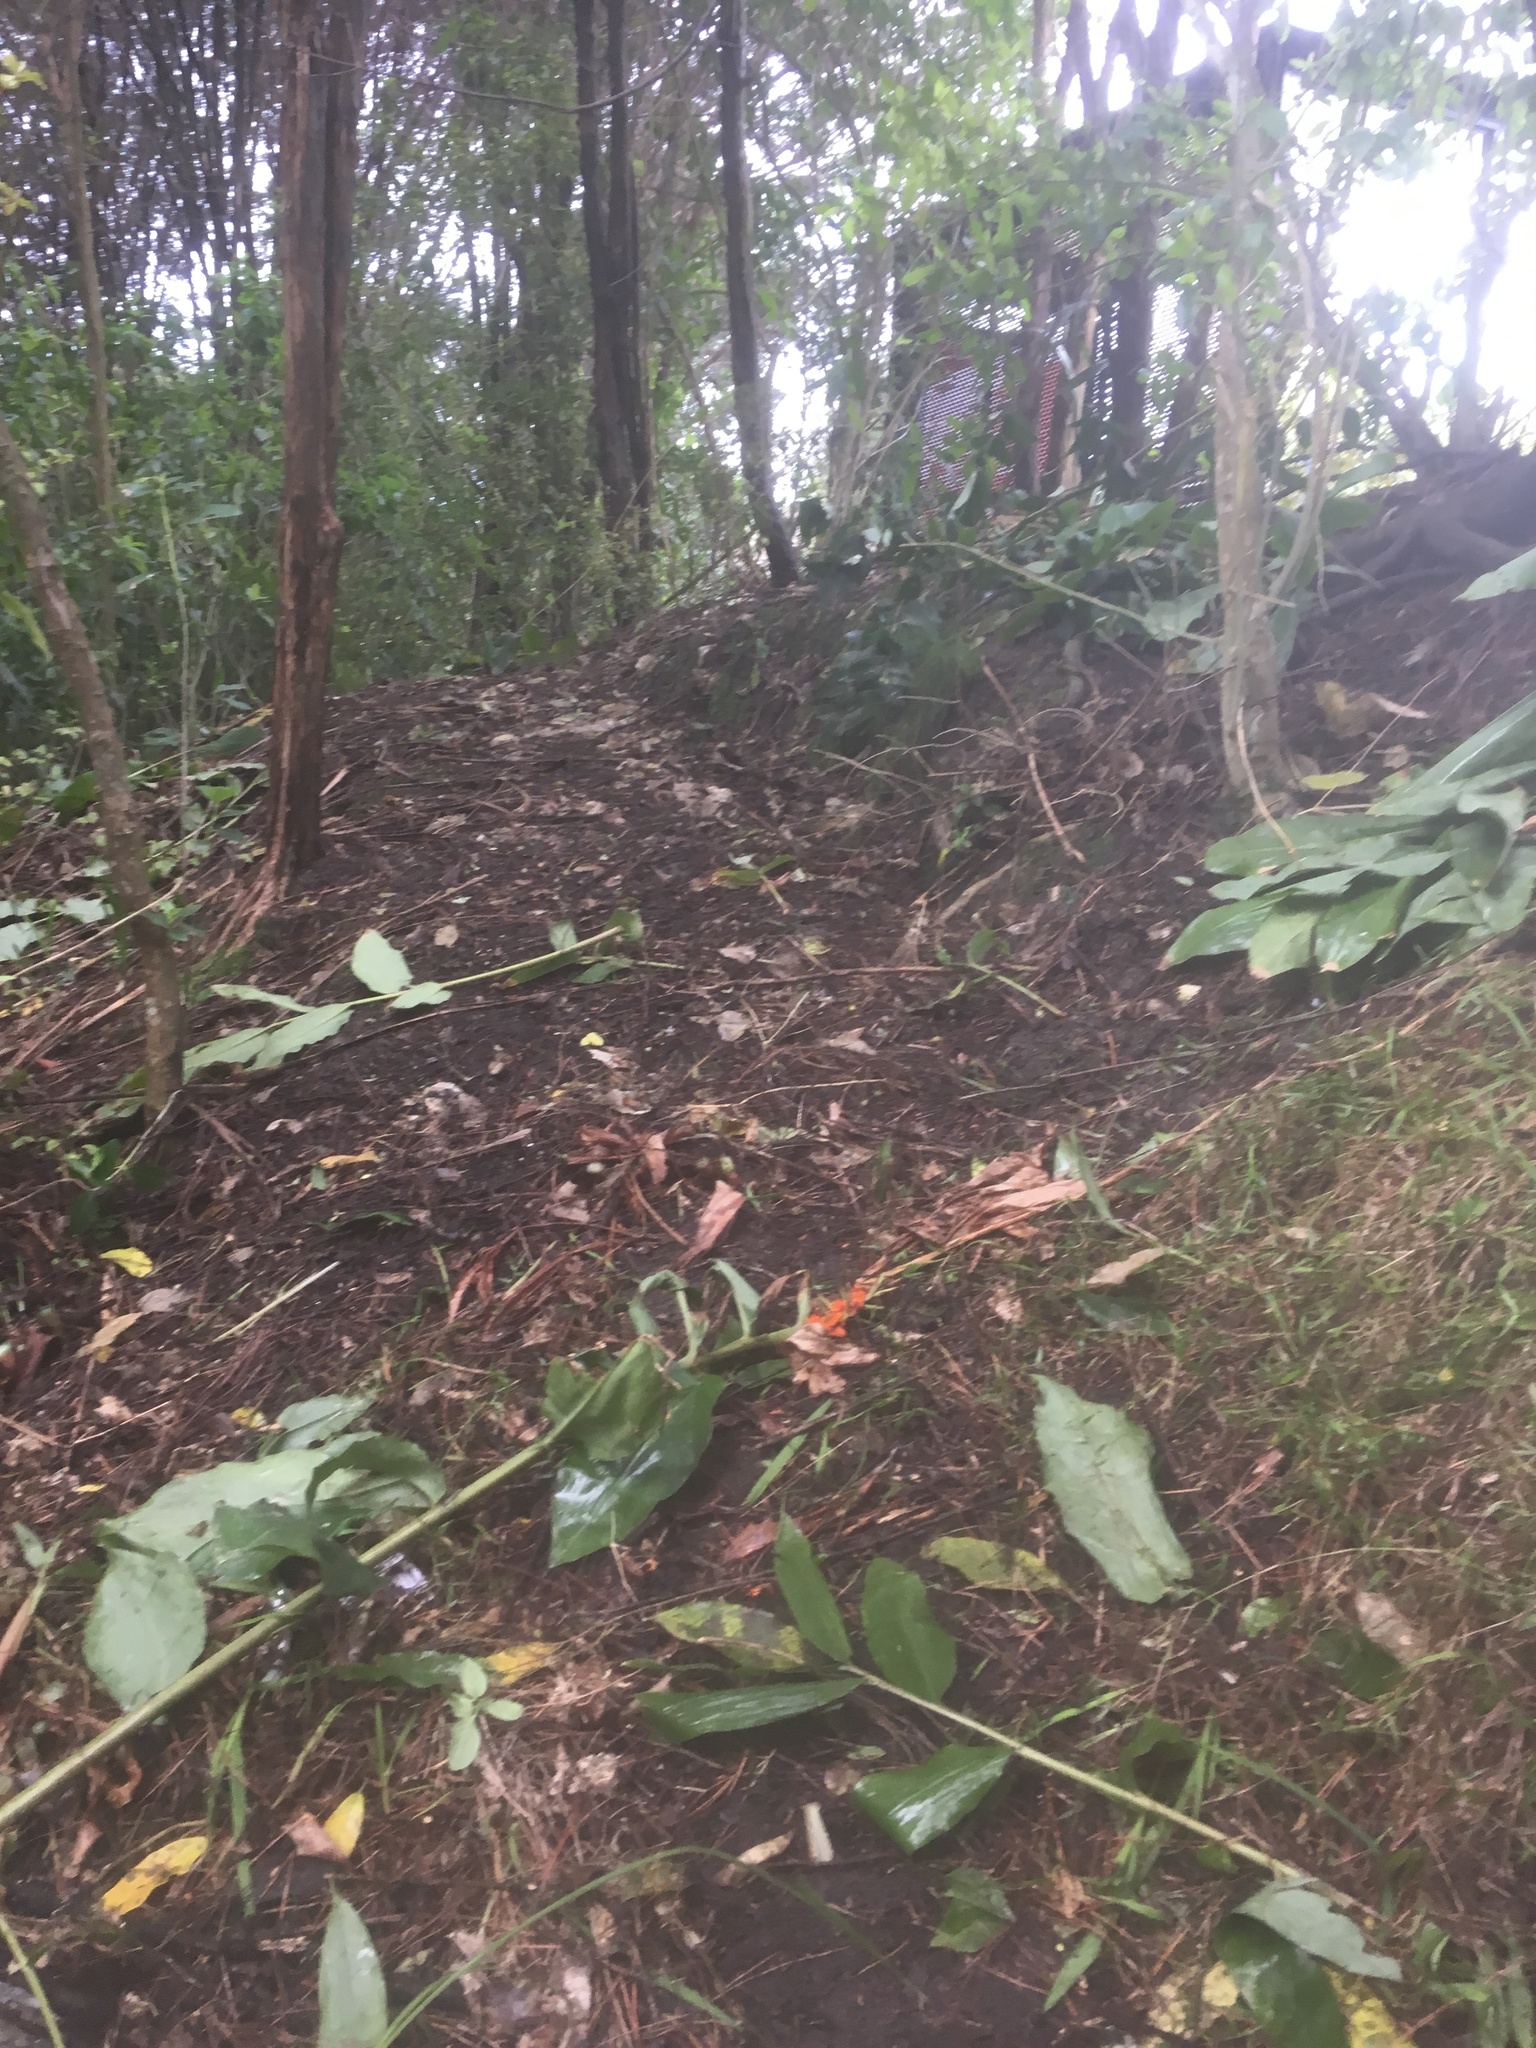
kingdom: Plantae
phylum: Tracheophyta
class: Liliopsida
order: Zingiberales
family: Zingiberaceae
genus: Hedychium
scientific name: Hedychium gardnerianum
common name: Himalayan ginger
